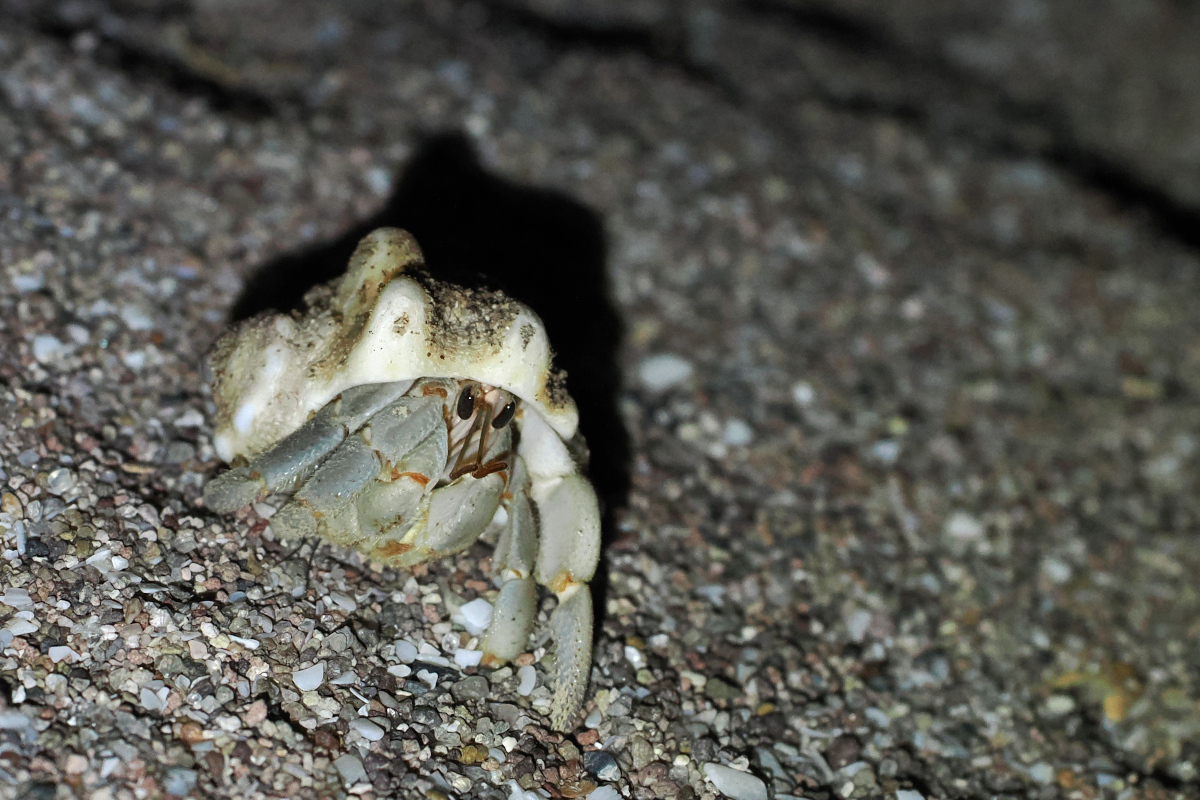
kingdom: Animalia
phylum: Arthropoda
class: Malacostraca
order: Decapoda
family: Coenobitidae
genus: Coenobita
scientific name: Coenobita compressus
